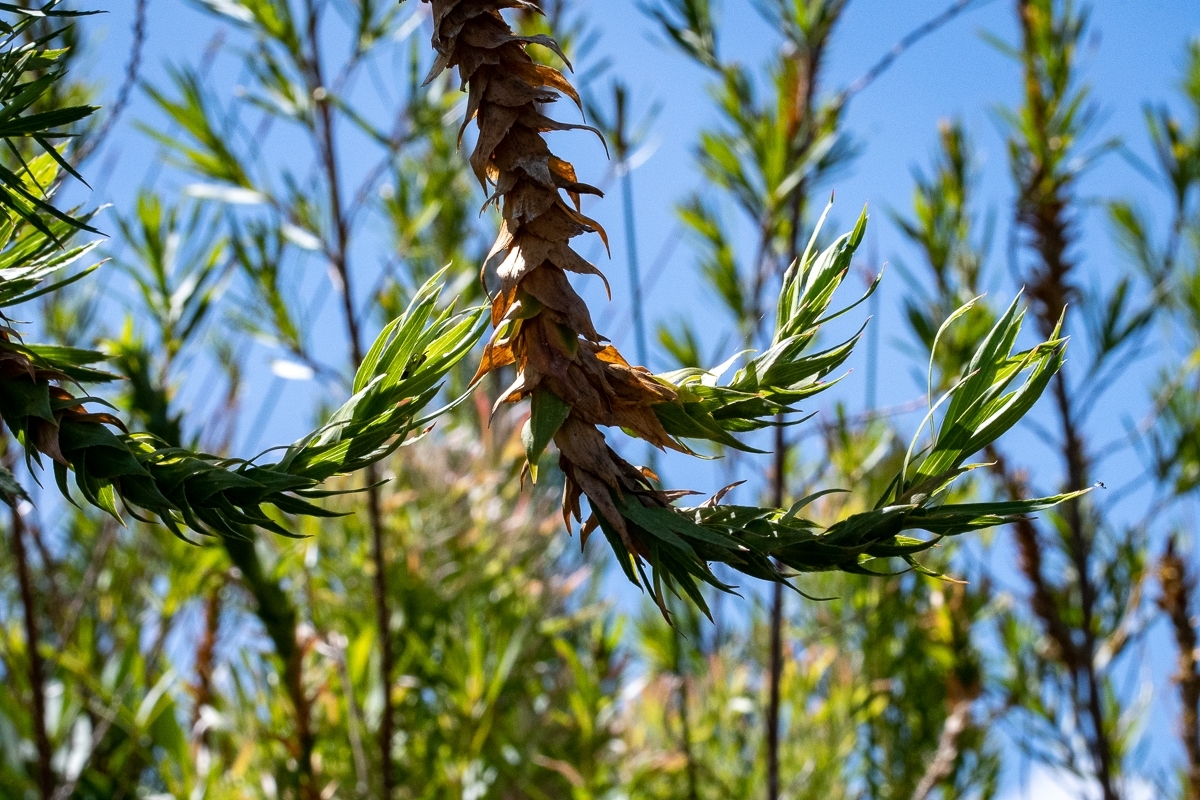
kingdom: Plantae
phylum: Tracheophyta
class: Magnoliopsida
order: Rosales
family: Rosaceae
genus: Cliffortia
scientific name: Cliffortia heterophylla
